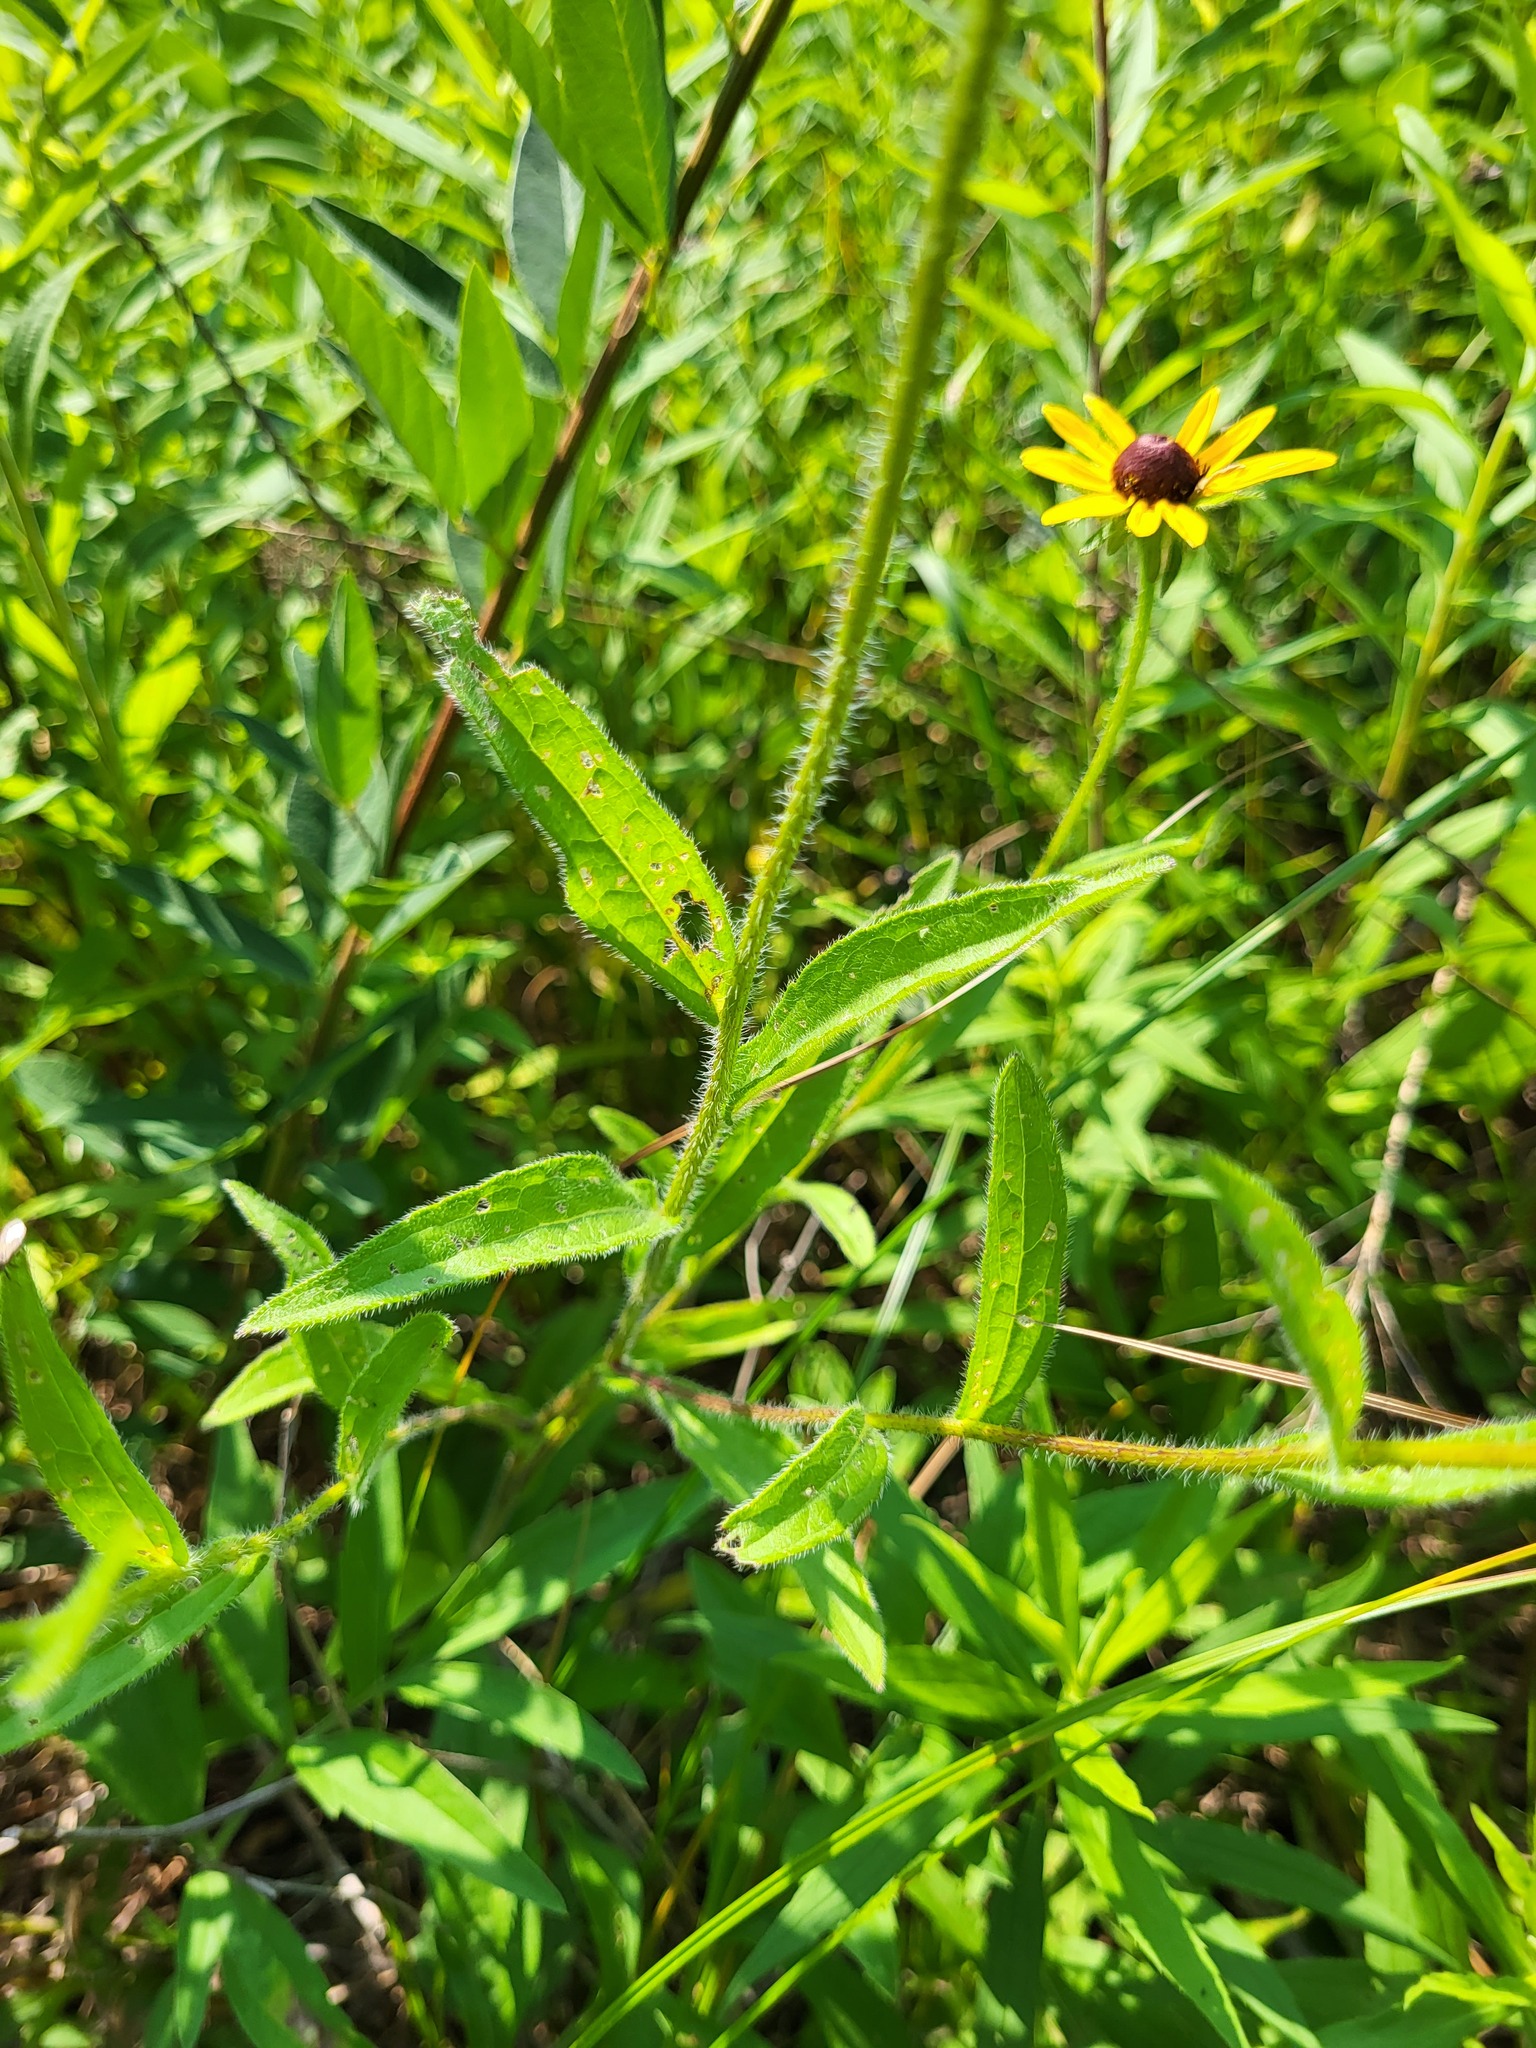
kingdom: Plantae
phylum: Tracheophyta
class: Magnoliopsida
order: Asterales
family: Asteraceae
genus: Rudbeckia
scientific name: Rudbeckia hirta
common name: Black-eyed-susan
